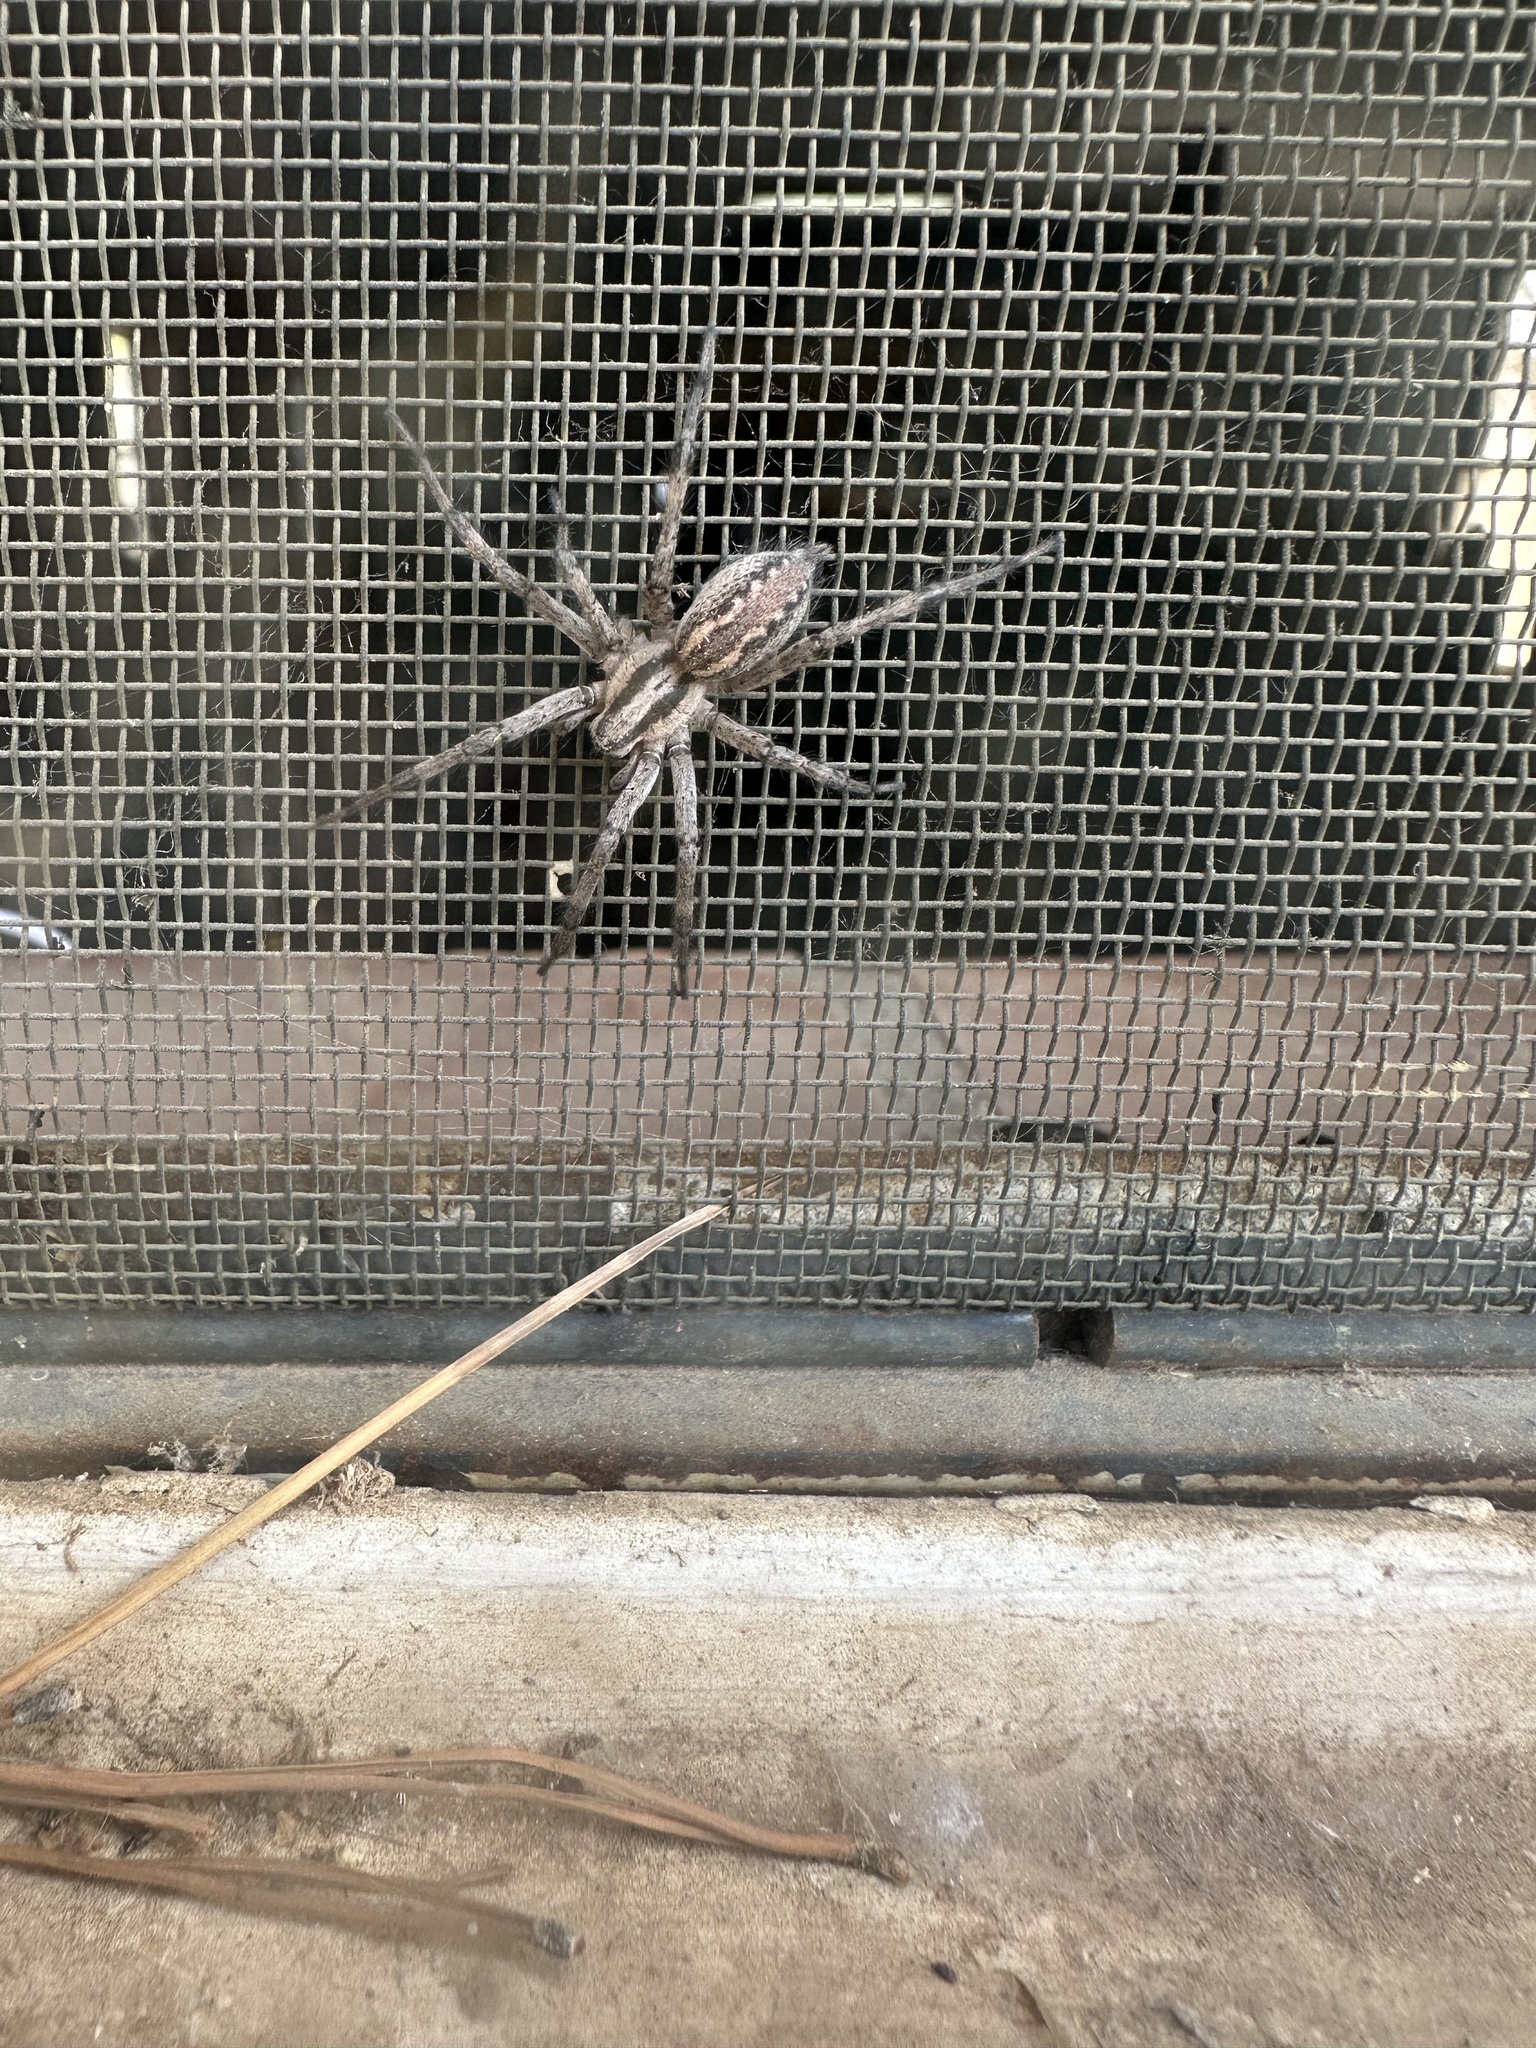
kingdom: Animalia
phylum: Arthropoda
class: Arachnida
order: Araneae
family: Agelenidae
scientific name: Agelenidae
